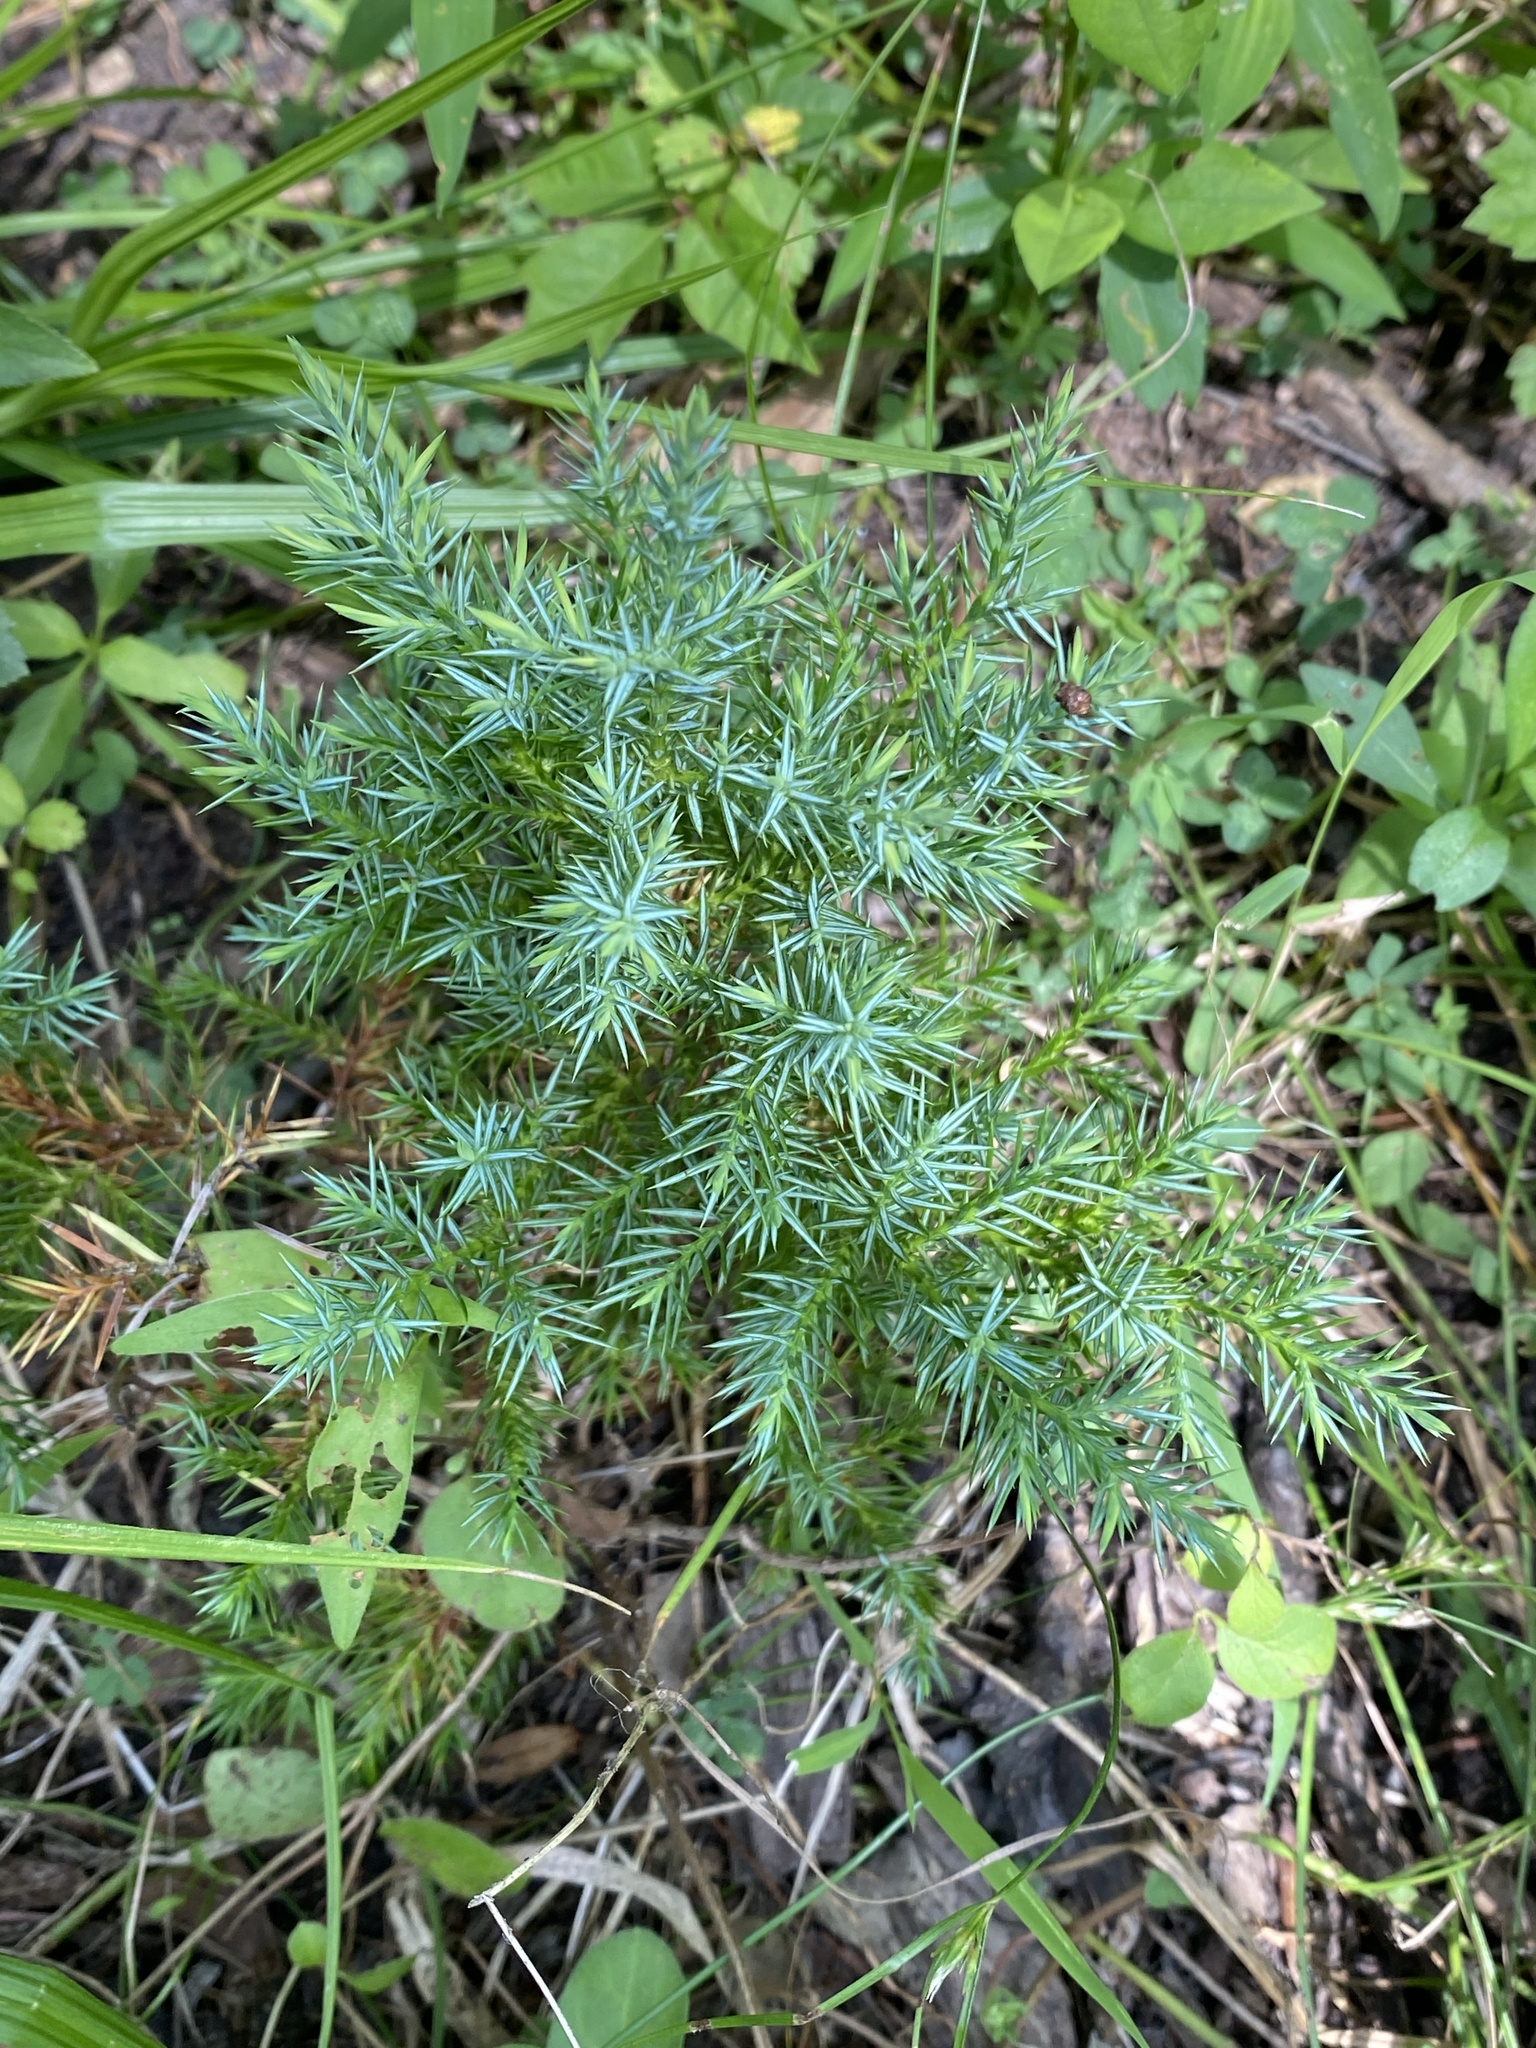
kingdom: Plantae
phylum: Tracheophyta
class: Pinopsida
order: Pinales
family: Cupressaceae
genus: Juniperus
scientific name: Juniperus virginiana
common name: Red juniper
